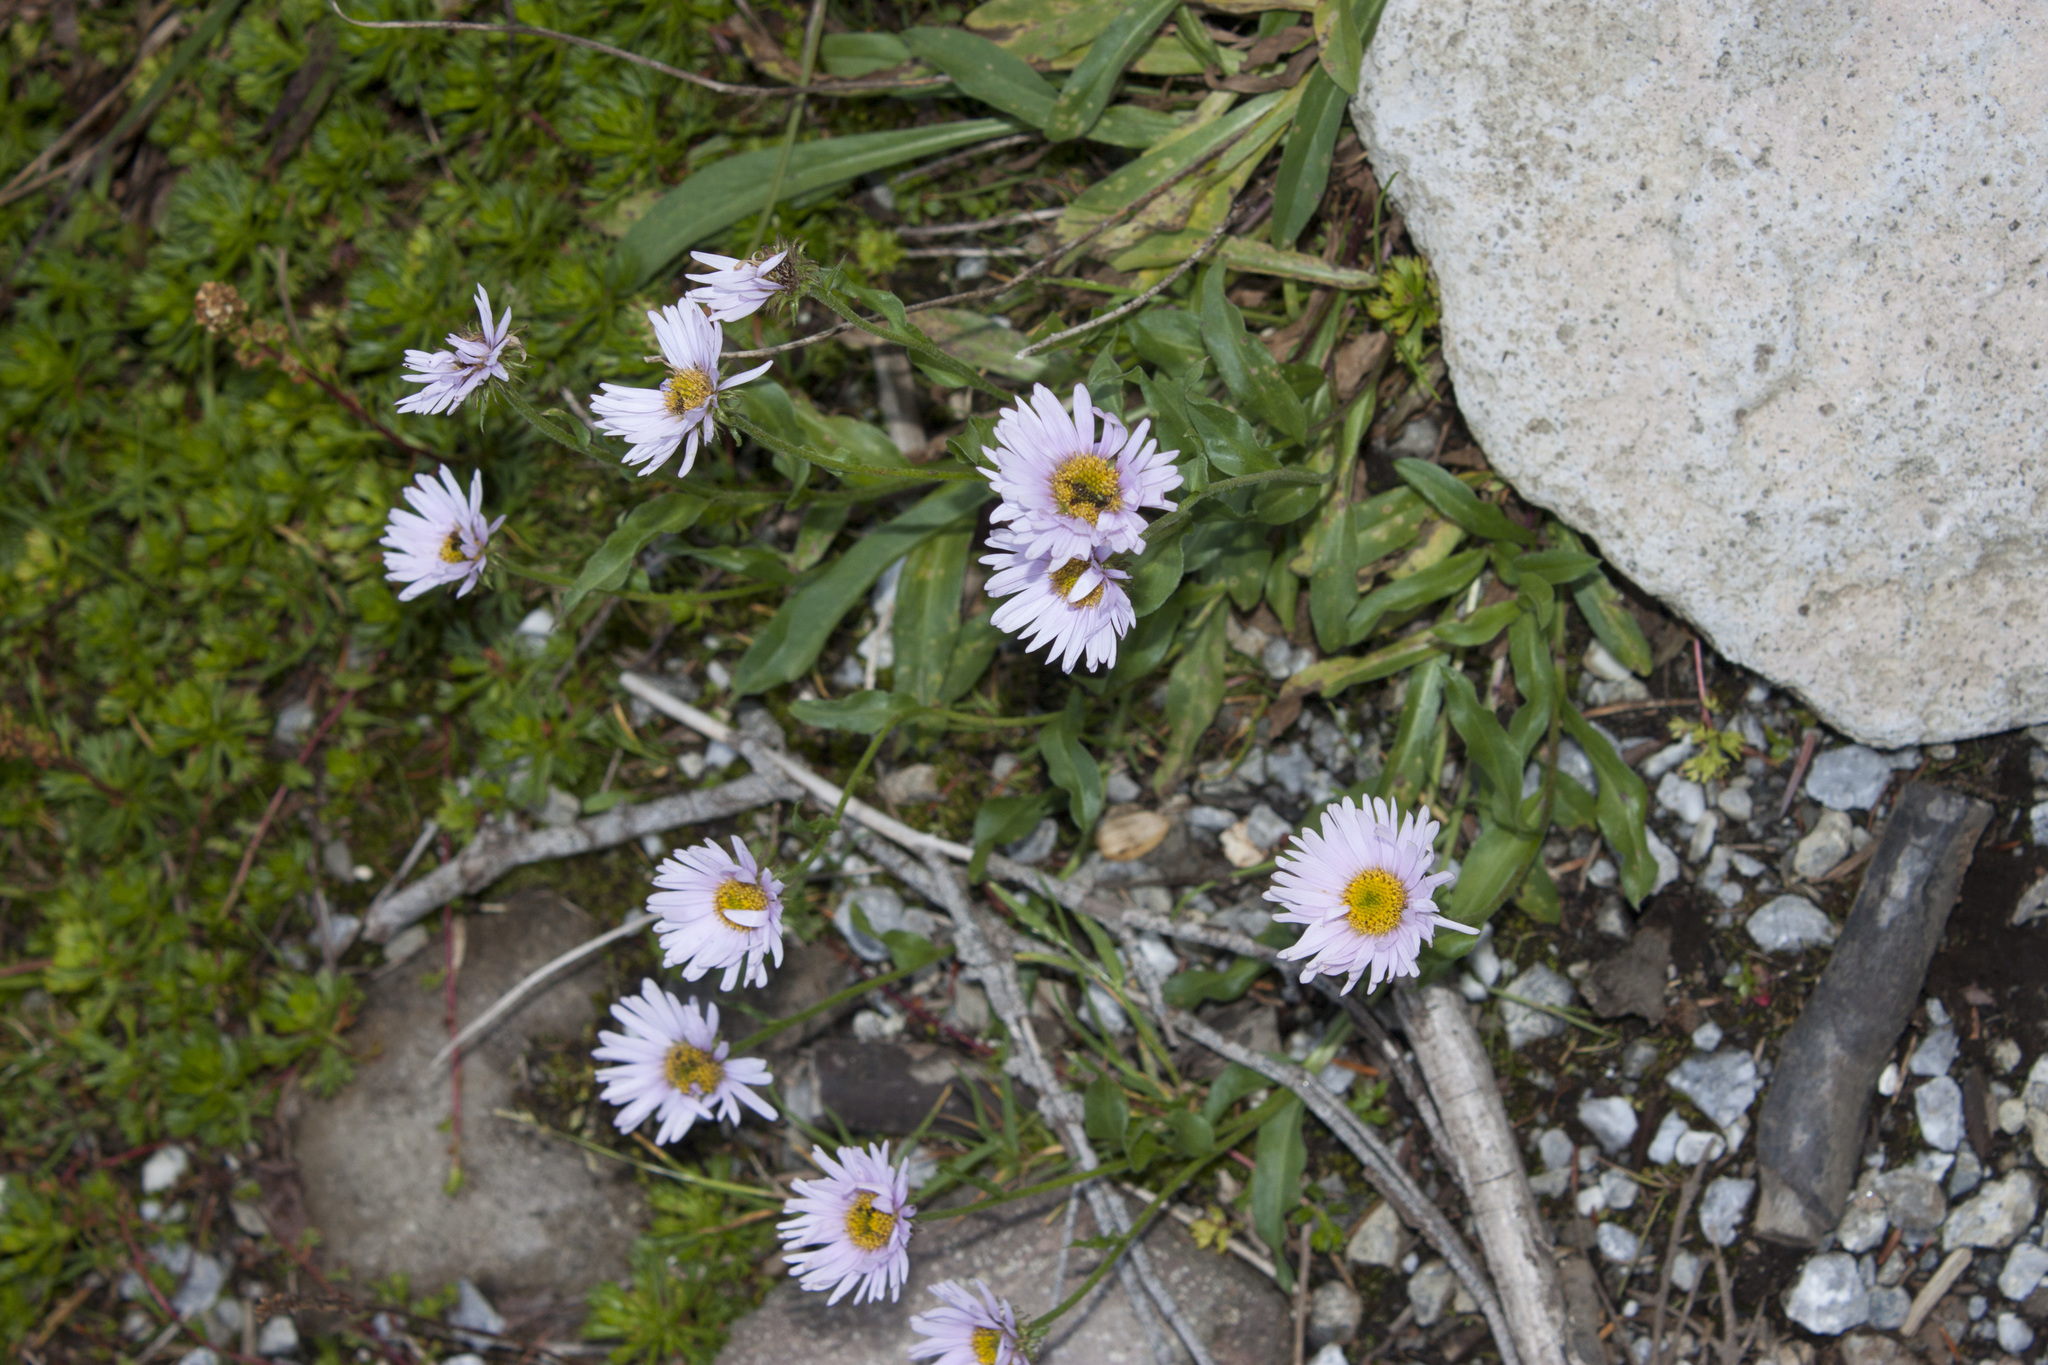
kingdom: Plantae
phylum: Tracheophyta
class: Magnoliopsida
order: Asterales
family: Asteraceae
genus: Erigeron
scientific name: Erigeron glacialis
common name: Subalpine fleabane
